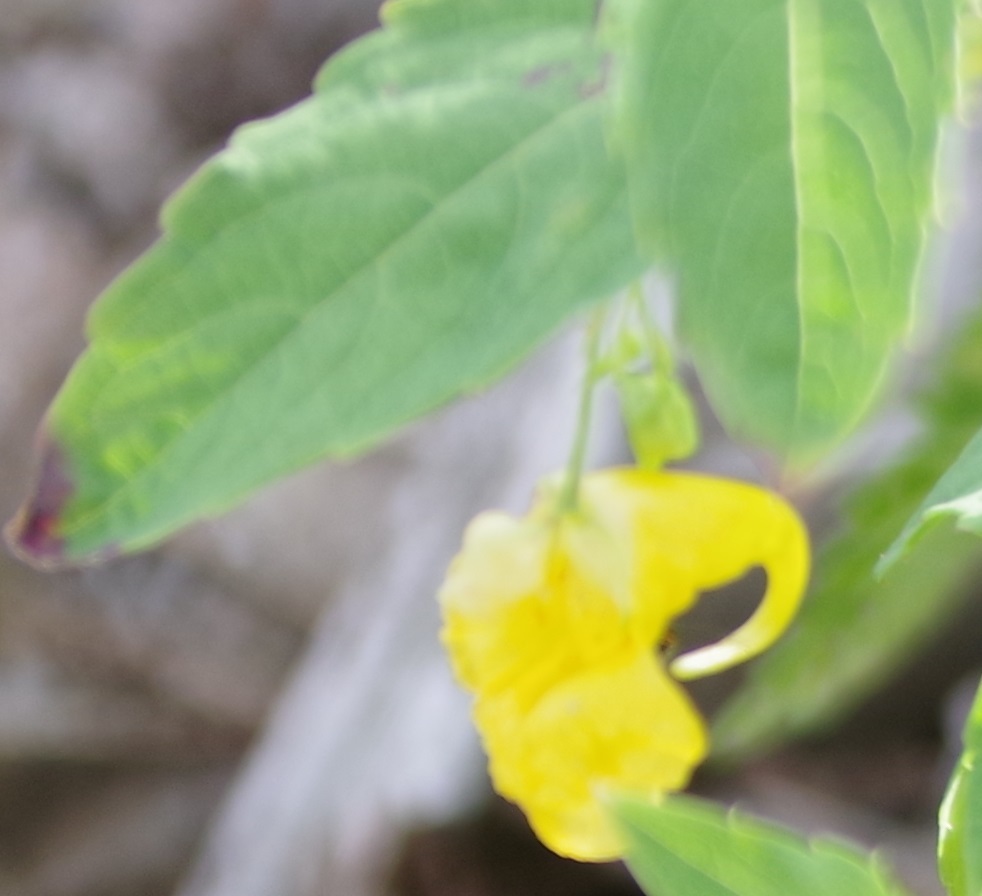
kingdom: Plantae
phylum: Tracheophyta
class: Magnoliopsida
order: Ericales
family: Balsaminaceae
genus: Impatiens
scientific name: Impatiens noli-tangere
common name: Touch-me-not balsam
